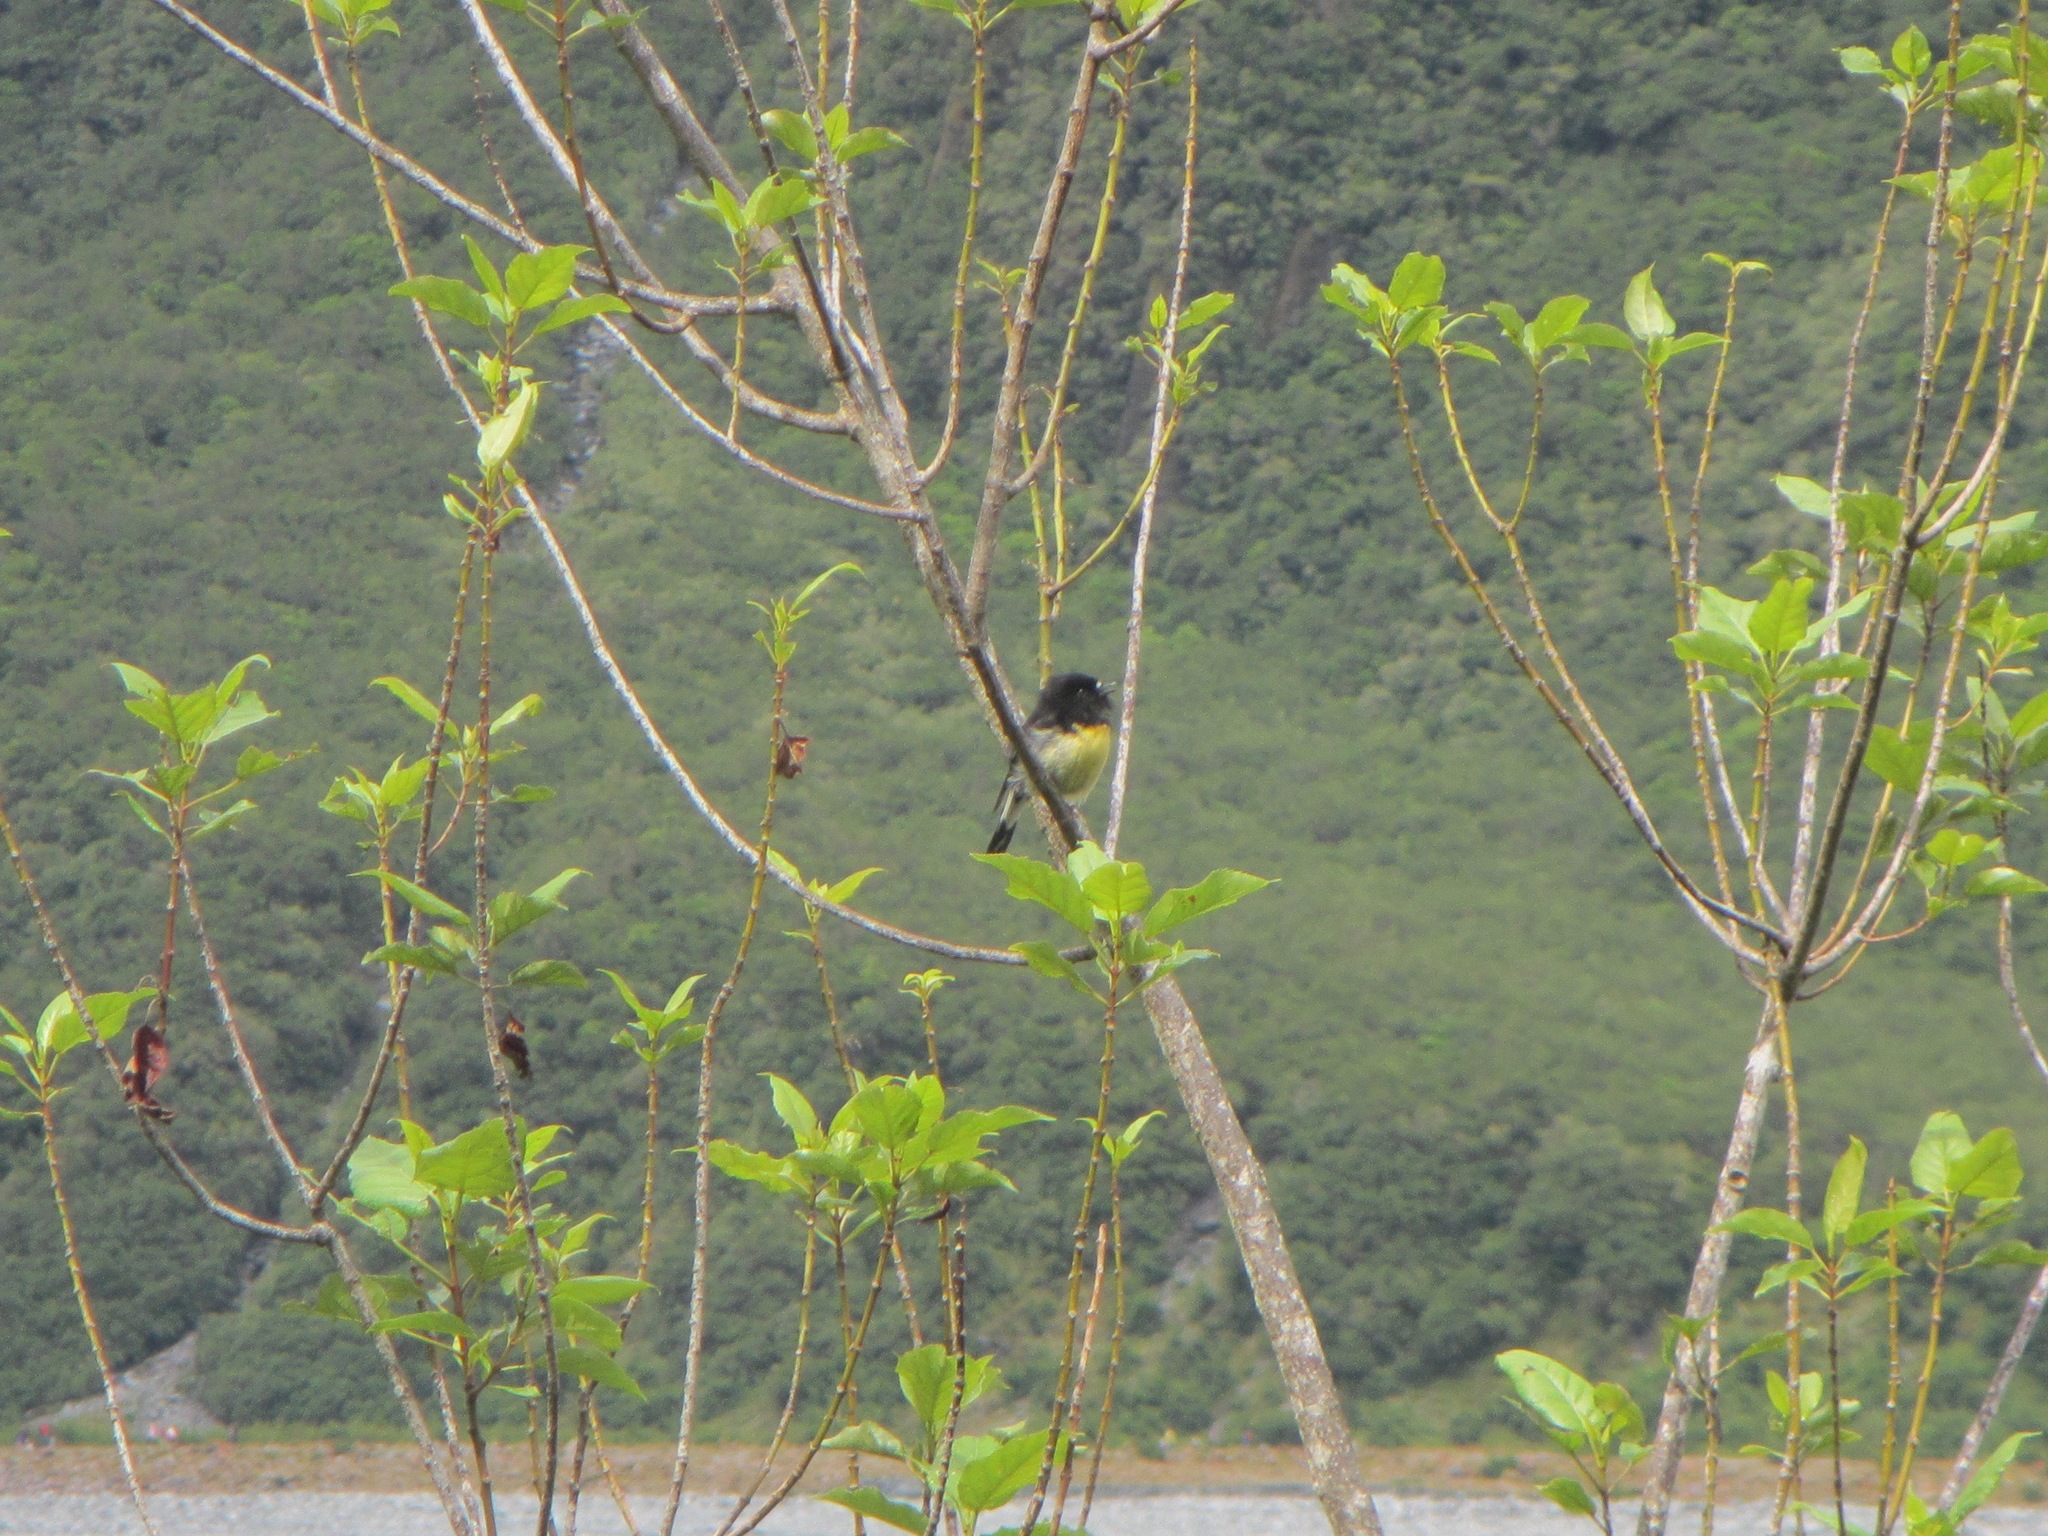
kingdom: Animalia
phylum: Chordata
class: Aves
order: Passeriformes
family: Petroicidae
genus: Petroica
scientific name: Petroica macrocephala
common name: Tomtit
